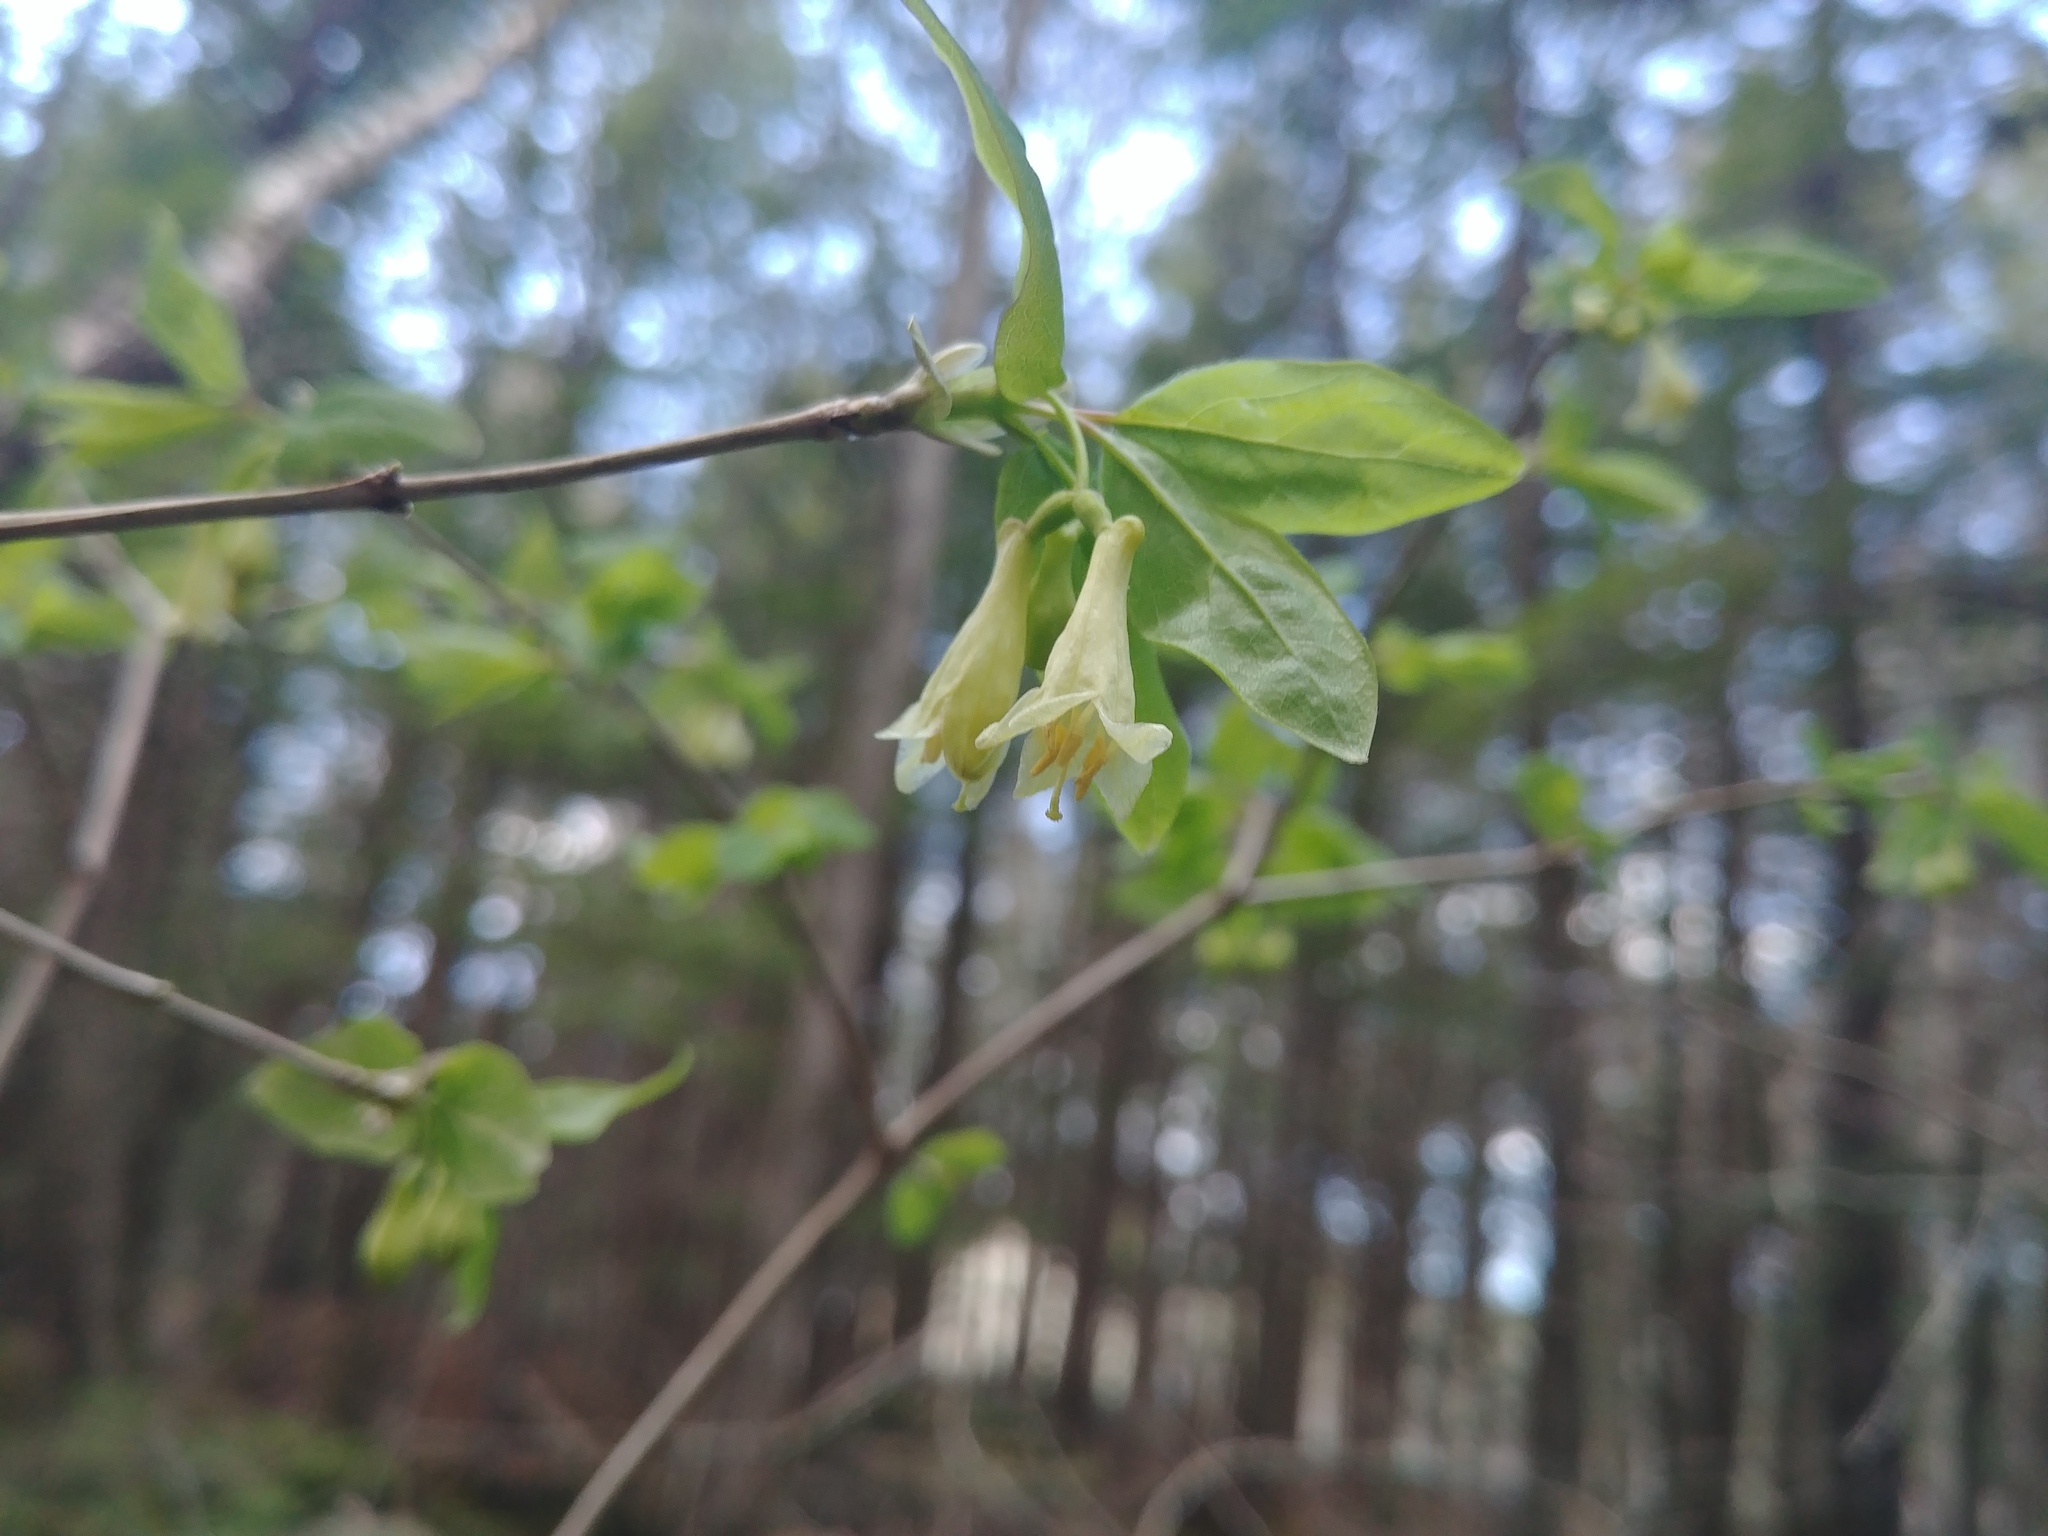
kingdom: Plantae
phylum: Tracheophyta
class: Magnoliopsida
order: Dipsacales
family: Caprifoliaceae
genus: Lonicera
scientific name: Lonicera canadensis
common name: American fly-honeysuckle
